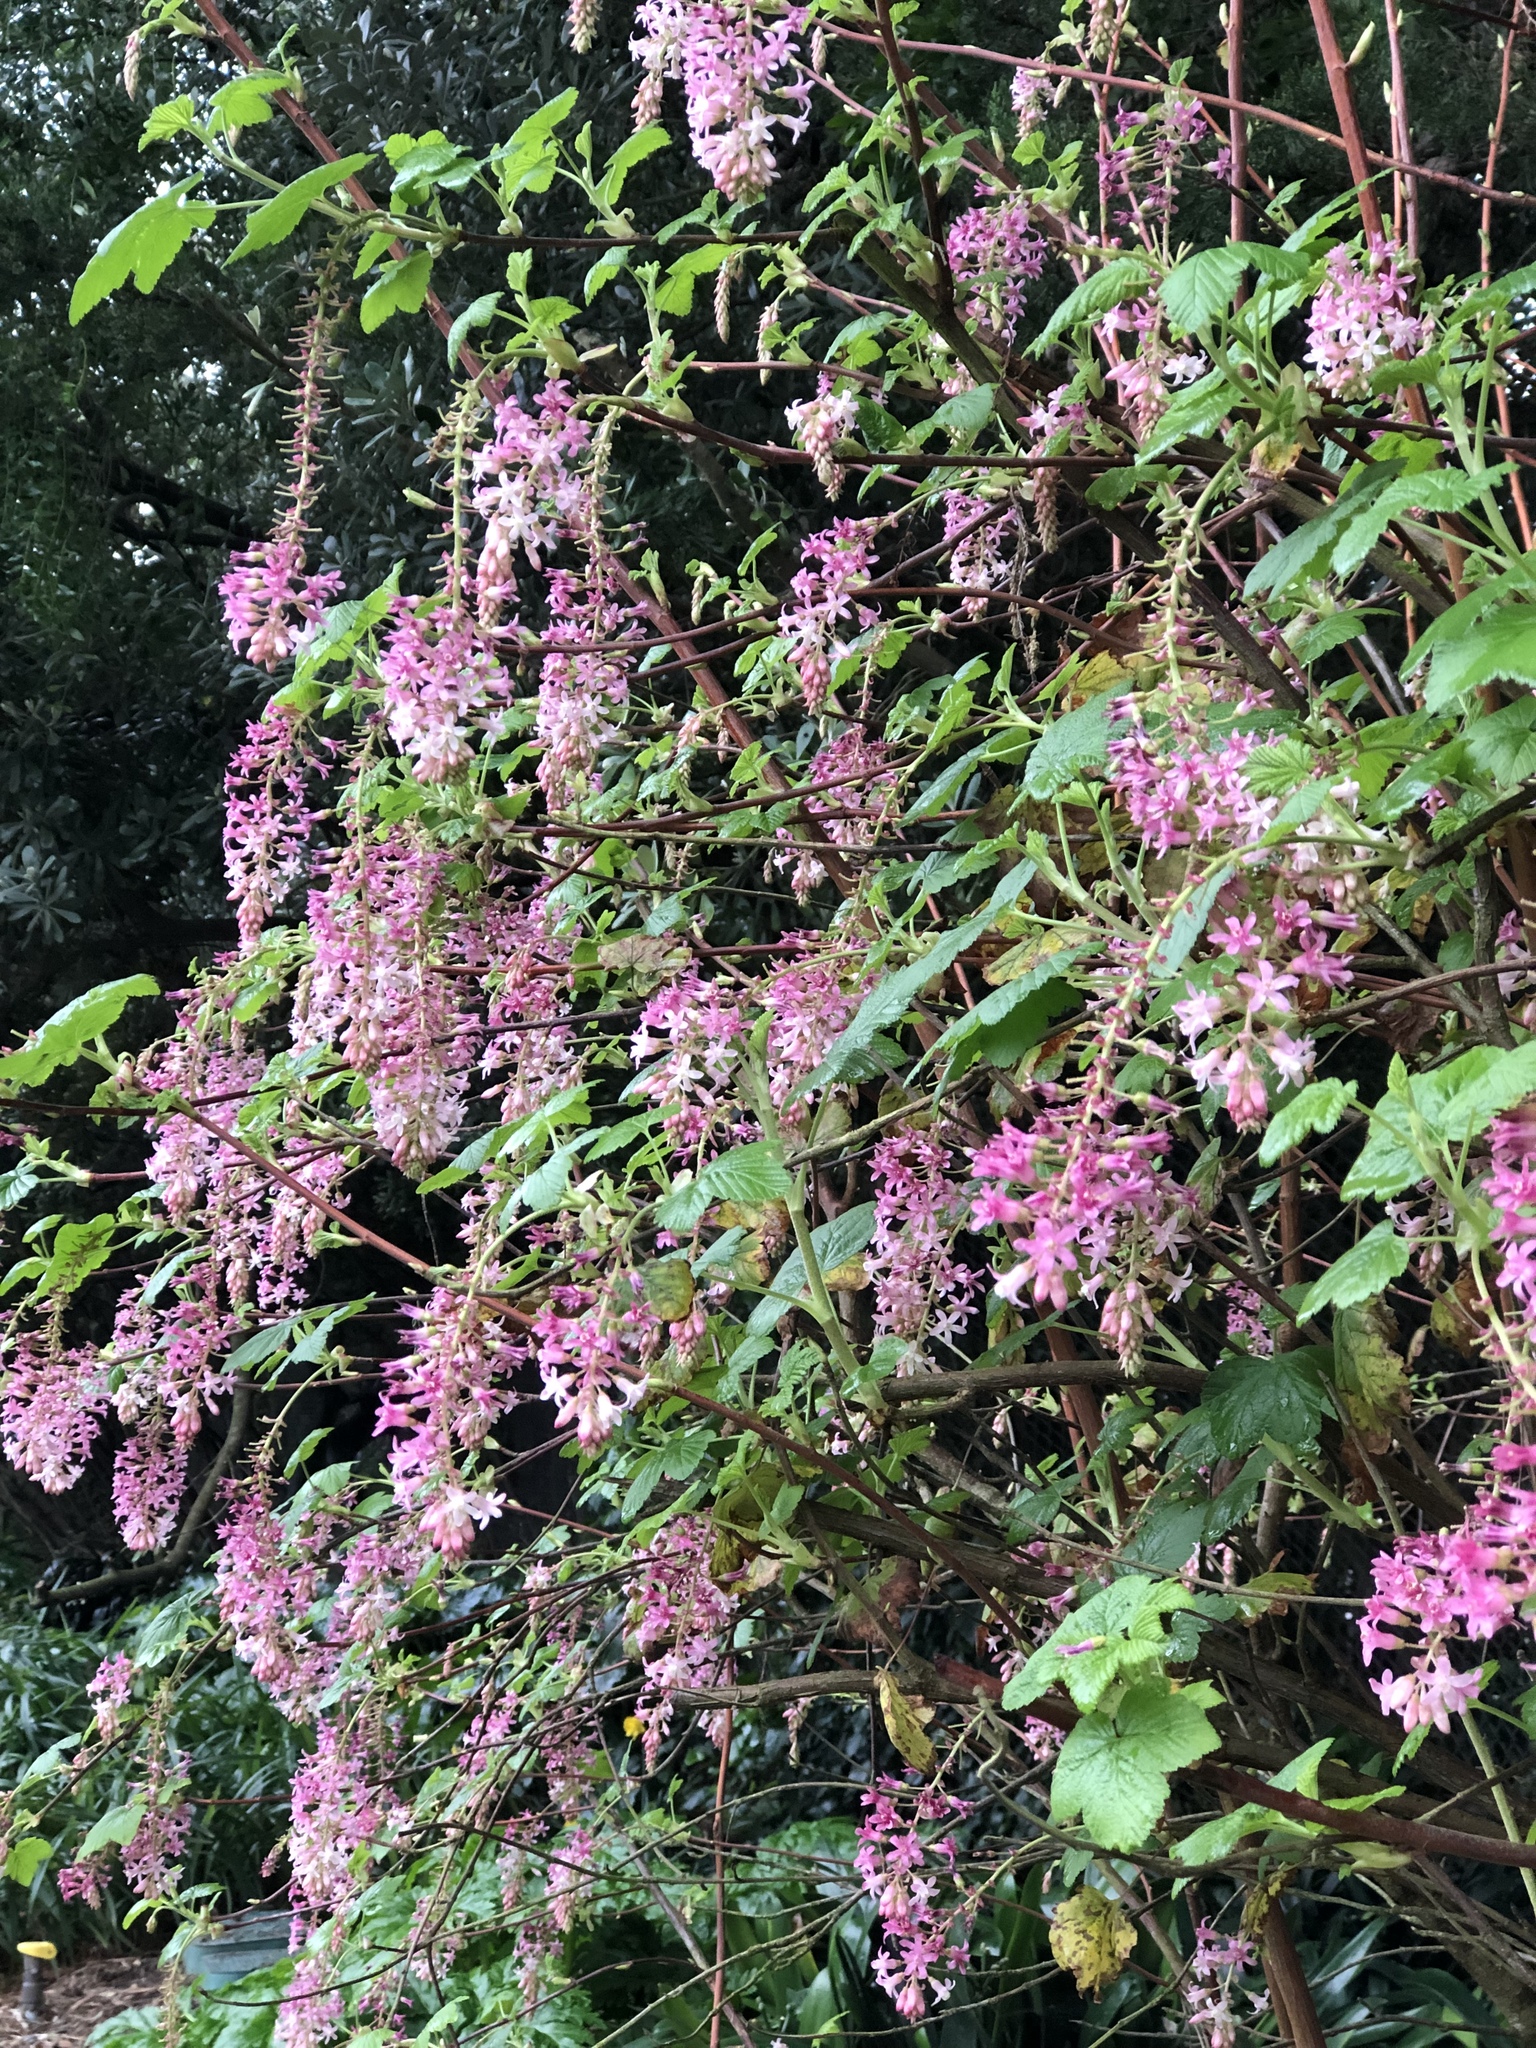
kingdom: Plantae
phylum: Tracheophyta
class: Magnoliopsida
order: Saxifragales
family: Grossulariaceae
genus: Ribes
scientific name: Ribes sanguineum
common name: Flowering currant
